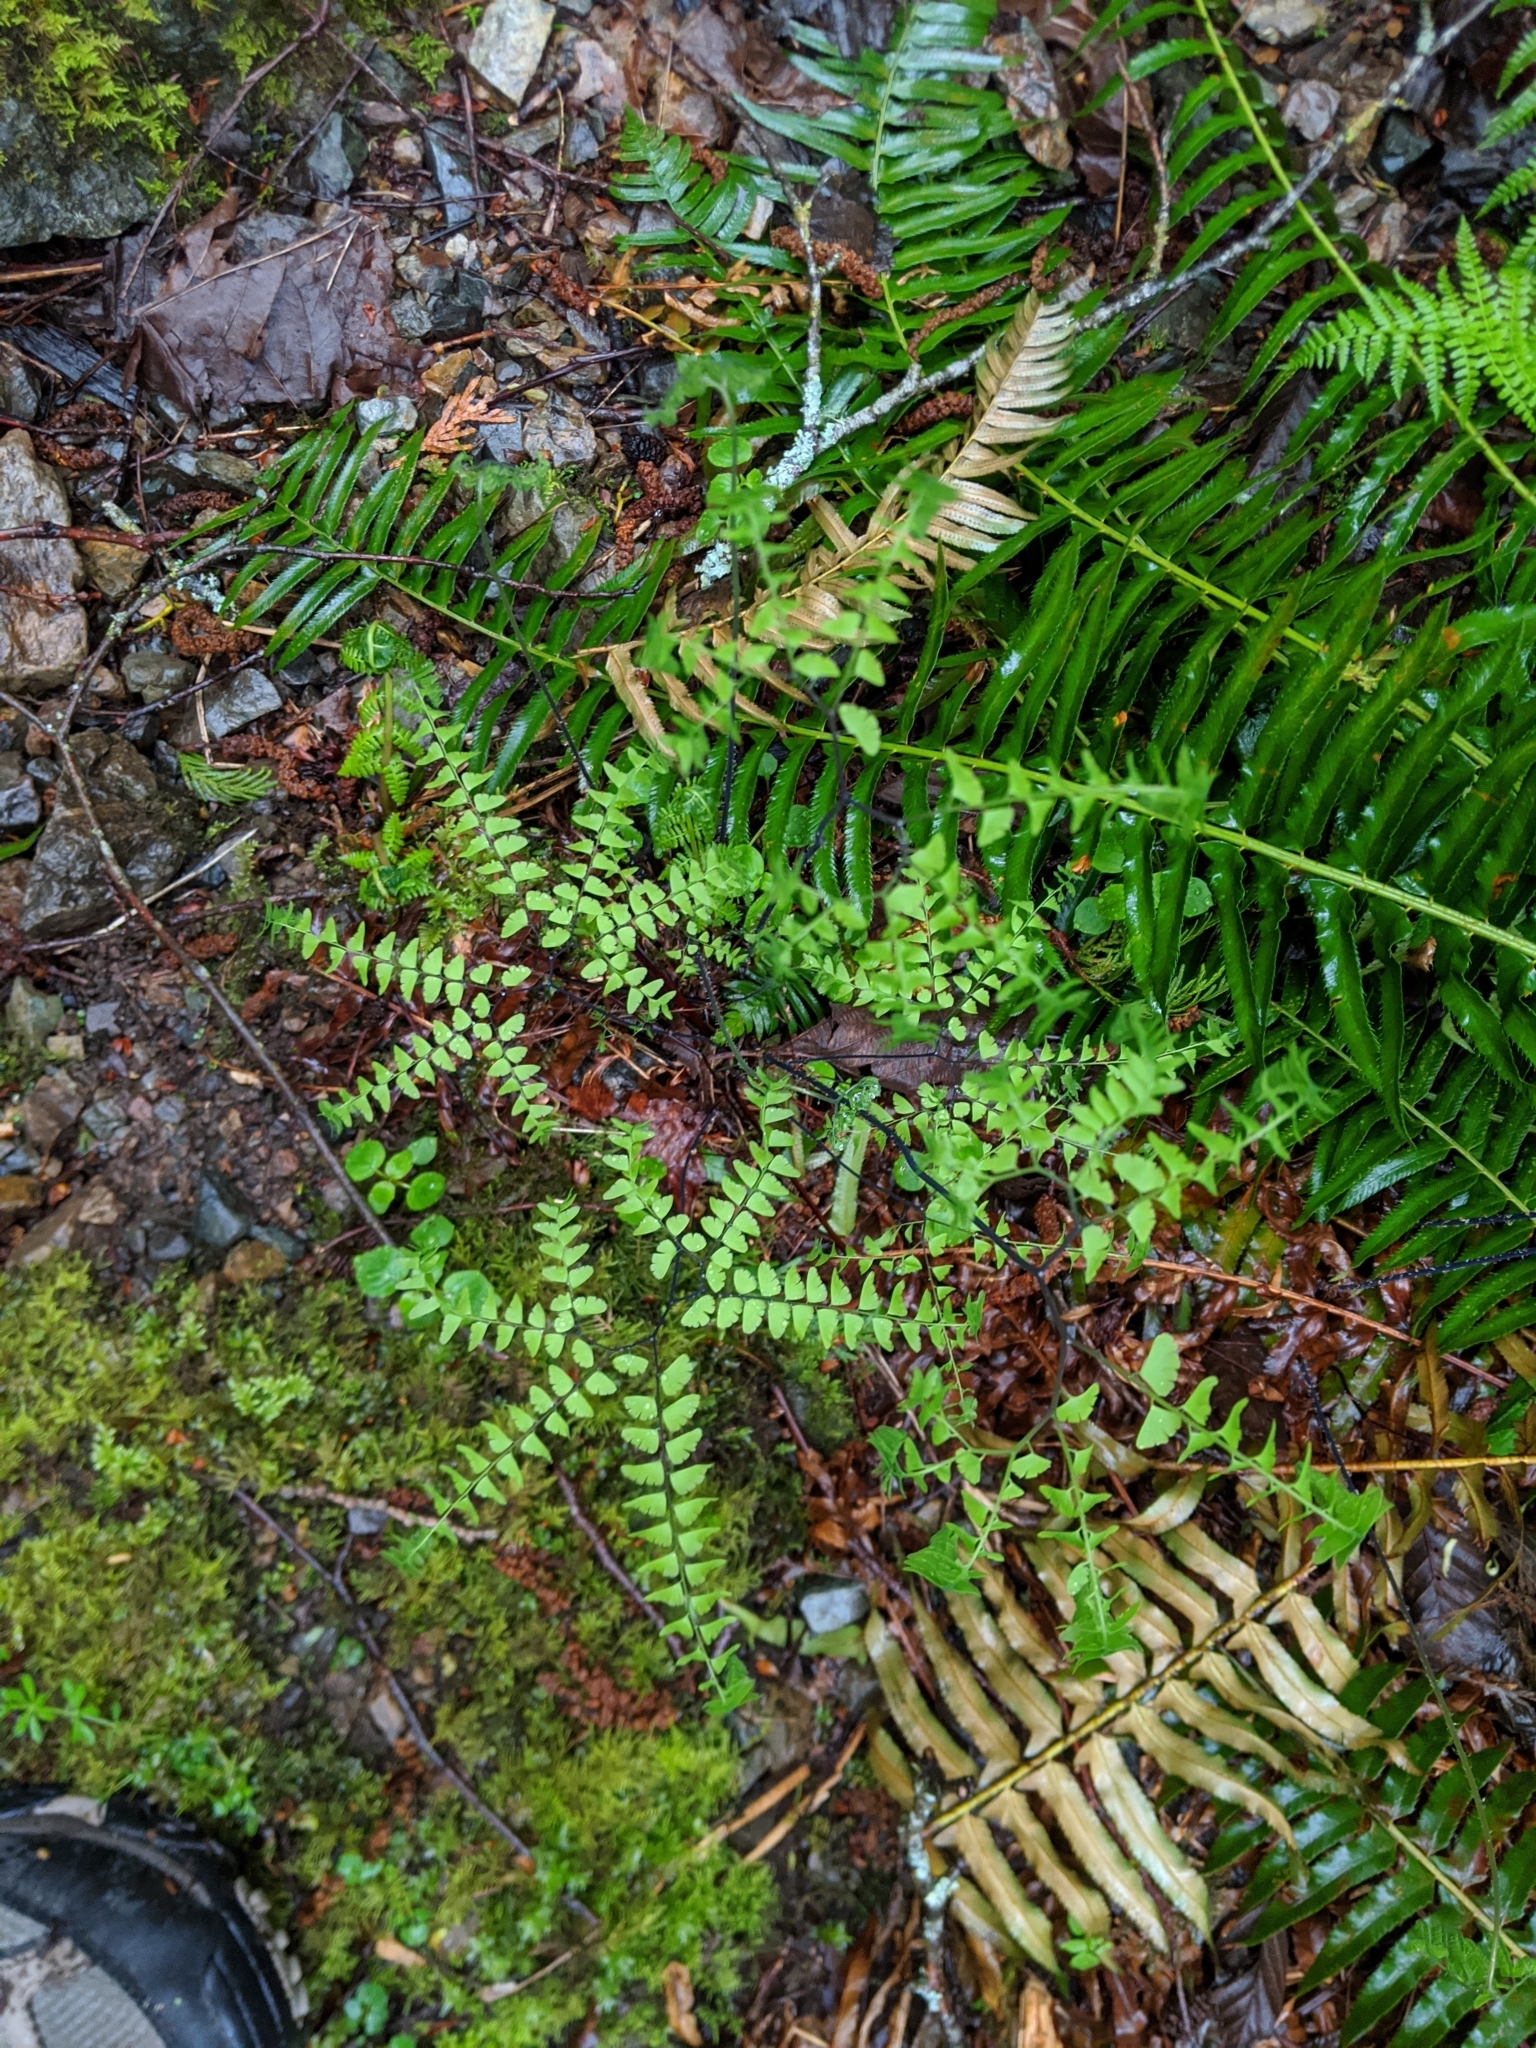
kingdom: Plantae
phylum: Tracheophyta
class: Polypodiopsida
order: Polypodiales
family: Pteridaceae
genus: Adiantum
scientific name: Adiantum aleuticum
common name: Aleutian maidenhair fern
